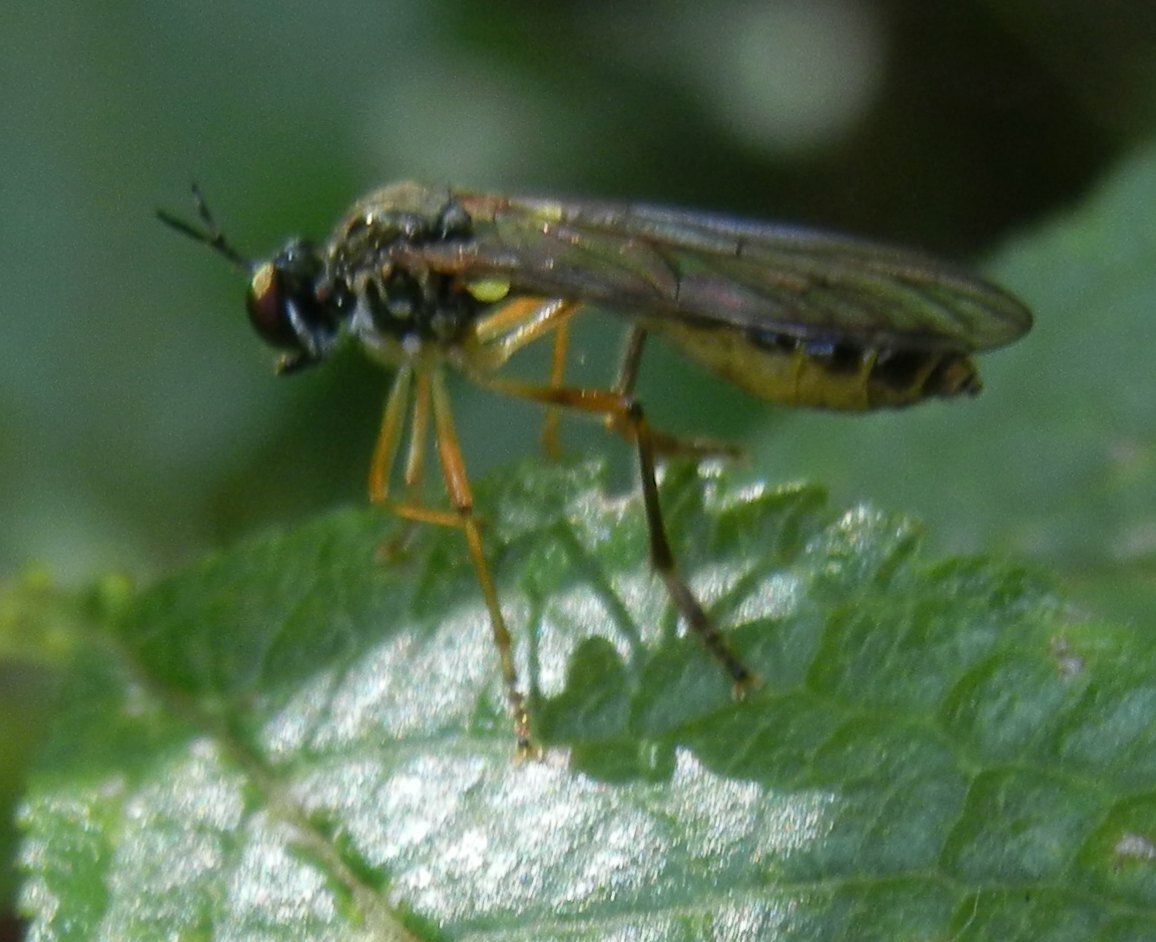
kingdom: Animalia
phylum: Arthropoda
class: Insecta
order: Diptera
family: Asilidae
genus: Dioctria
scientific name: Dioctria linearis
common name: Small yellow-legged robberfly
